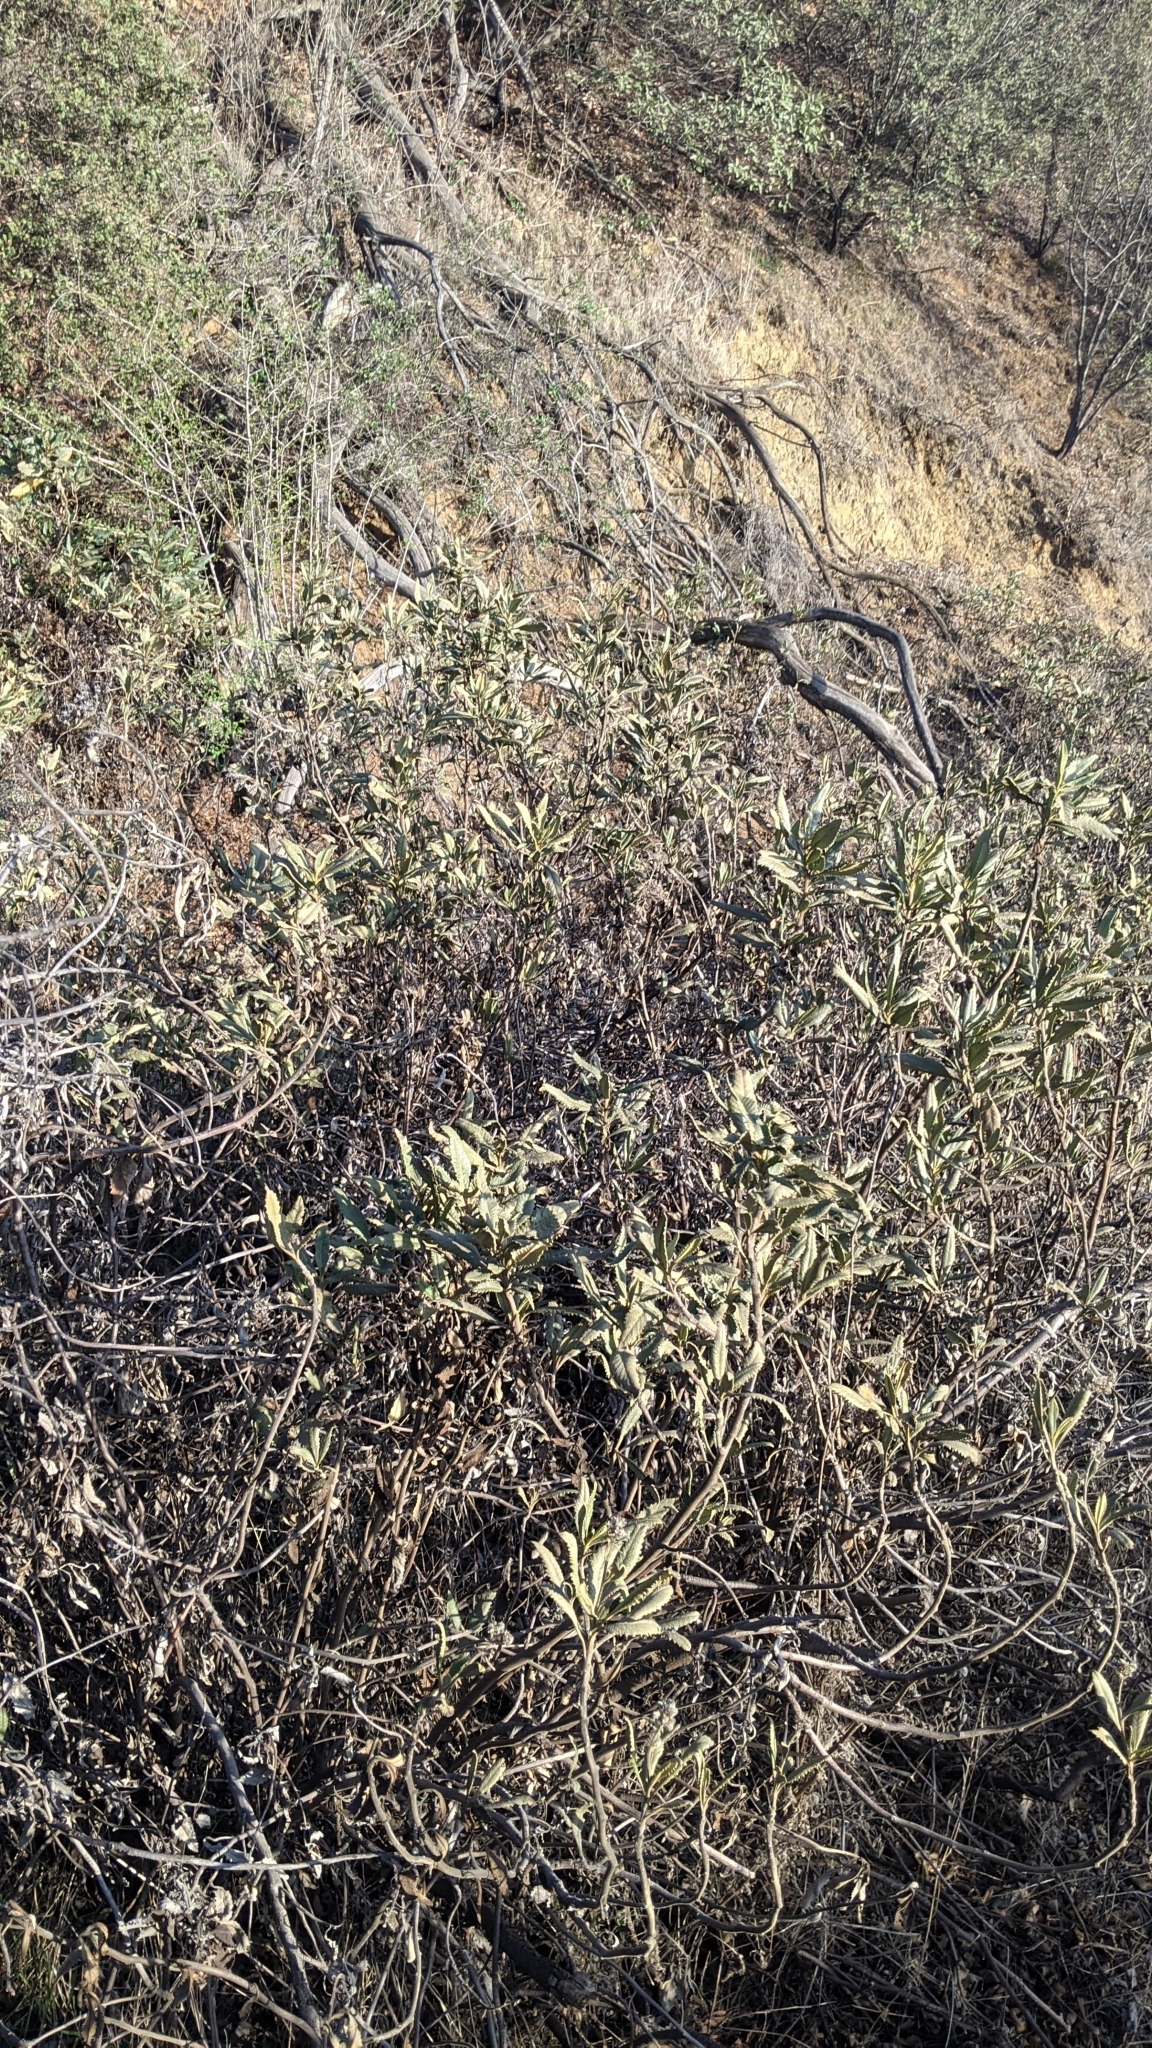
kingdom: Plantae
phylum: Tracheophyta
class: Magnoliopsida
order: Boraginales
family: Namaceae
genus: Eriodictyon
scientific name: Eriodictyon trichocalyx
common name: Hairy yerba-santa
